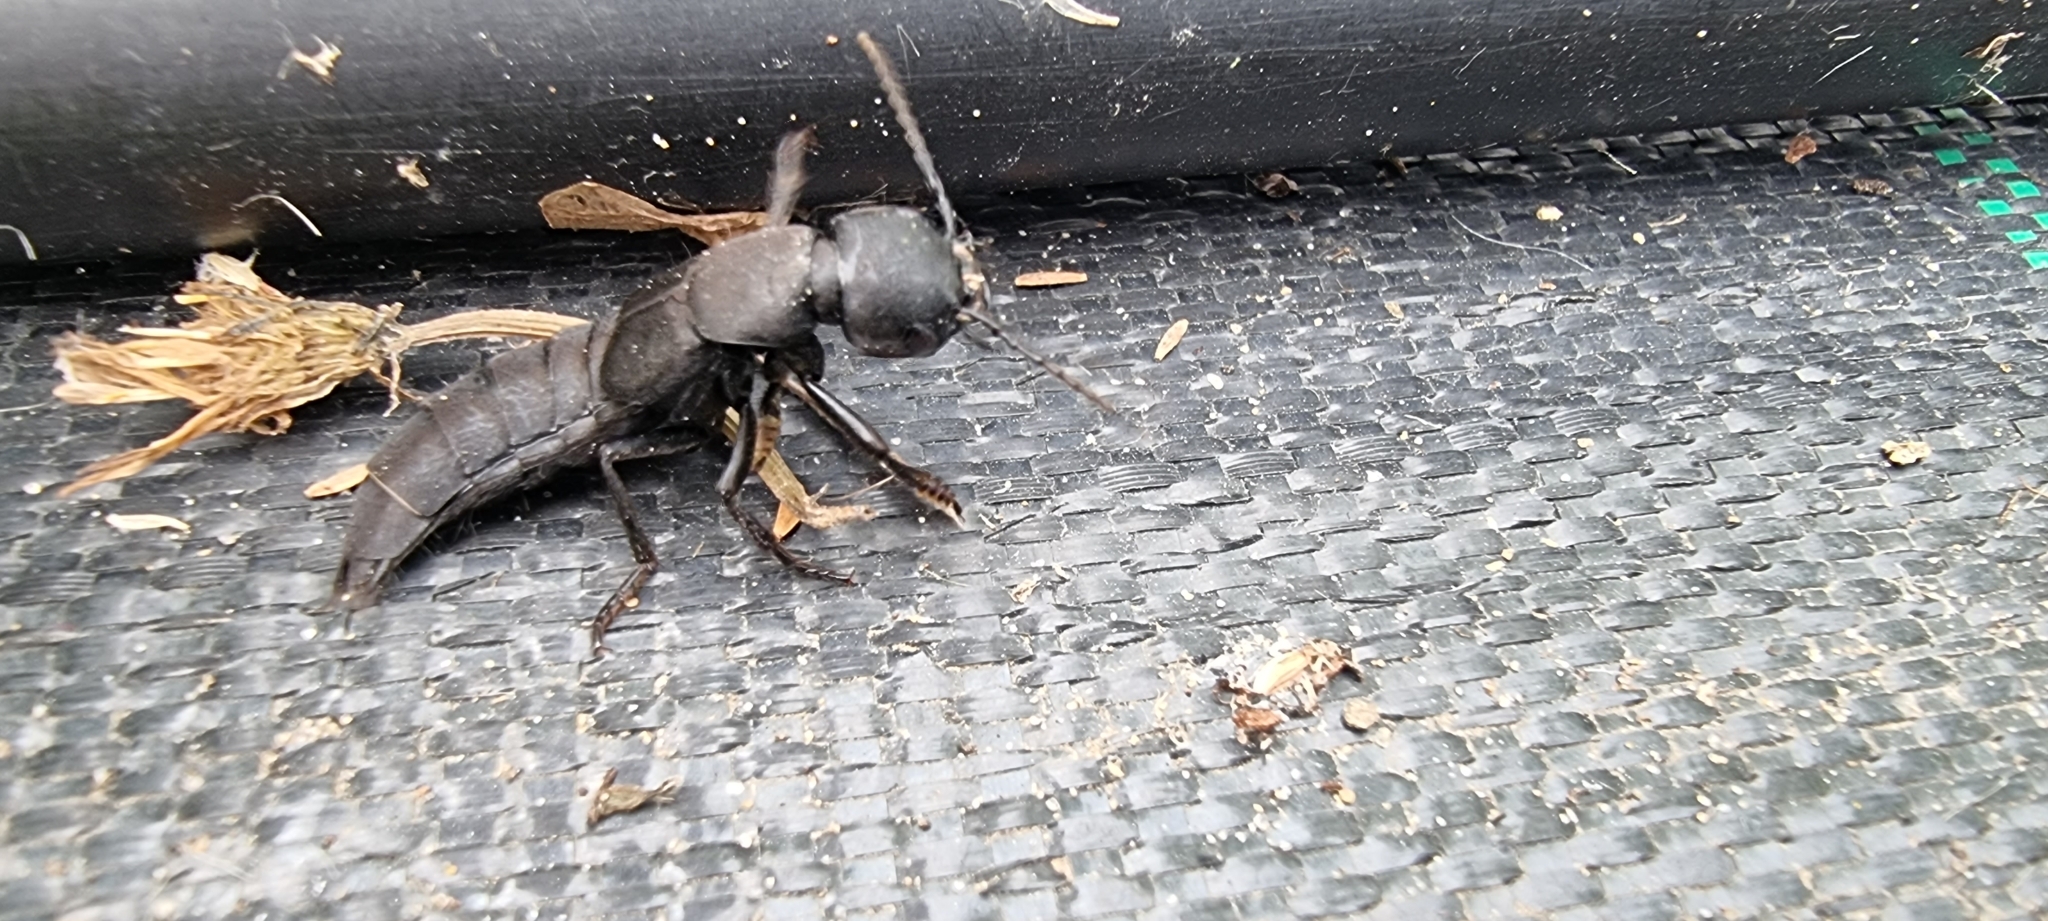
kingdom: Animalia
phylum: Arthropoda
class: Insecta
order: Coleoptera
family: Staphylinidae
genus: Ocypus
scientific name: Ocypus olens
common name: Devil's coach-horse
